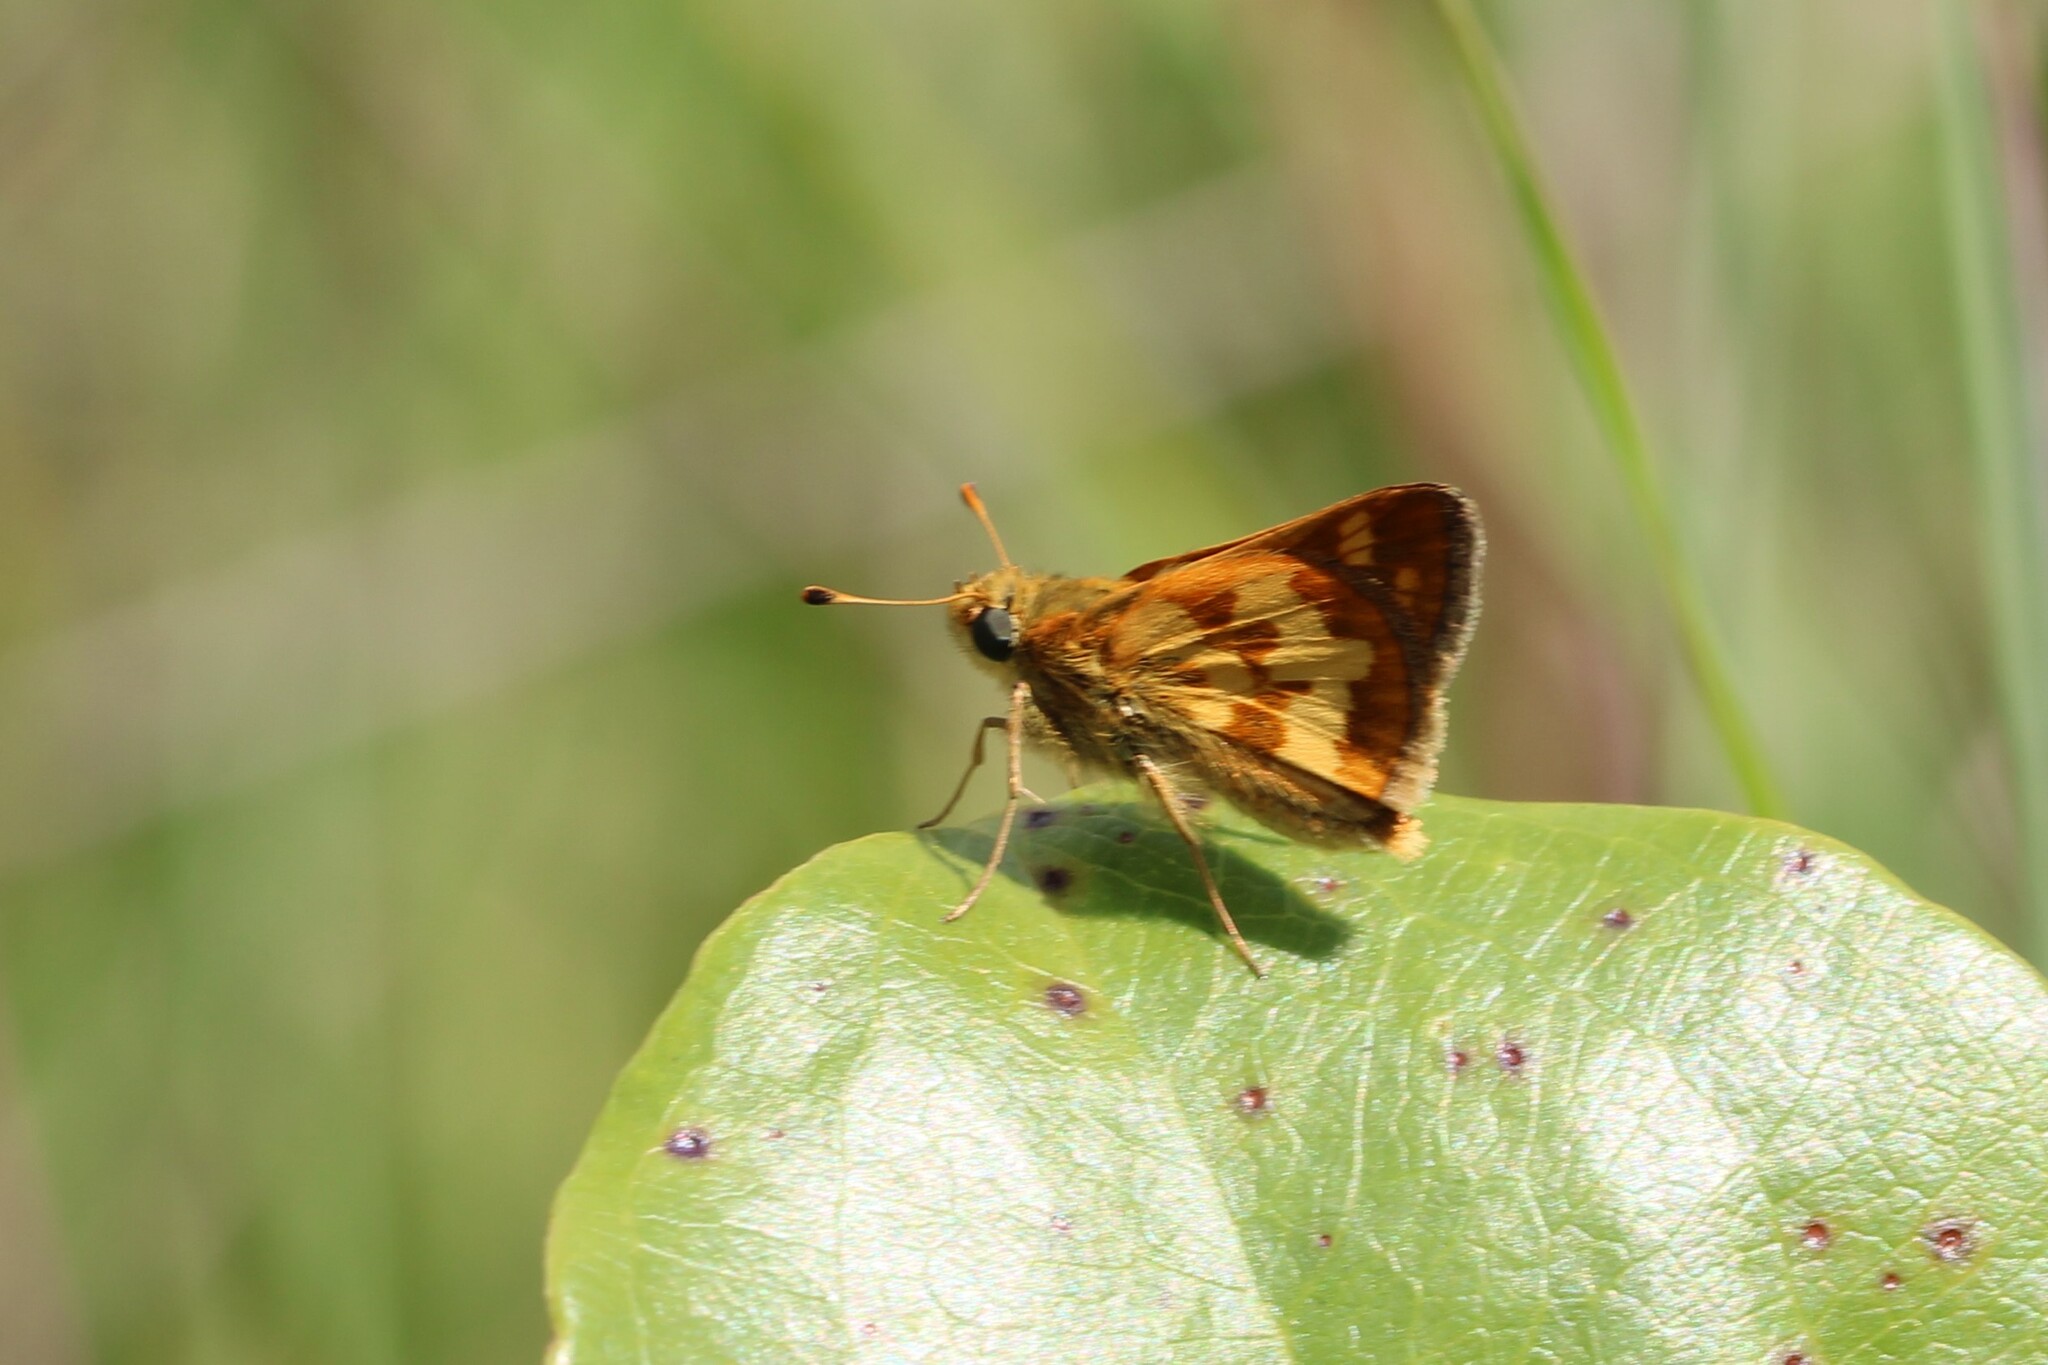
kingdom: Animalia
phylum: Arthropoda
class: Insecta
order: Lepidoptera
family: Hesperiidae
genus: Polites
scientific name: Polites coras
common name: Peck's skipper
